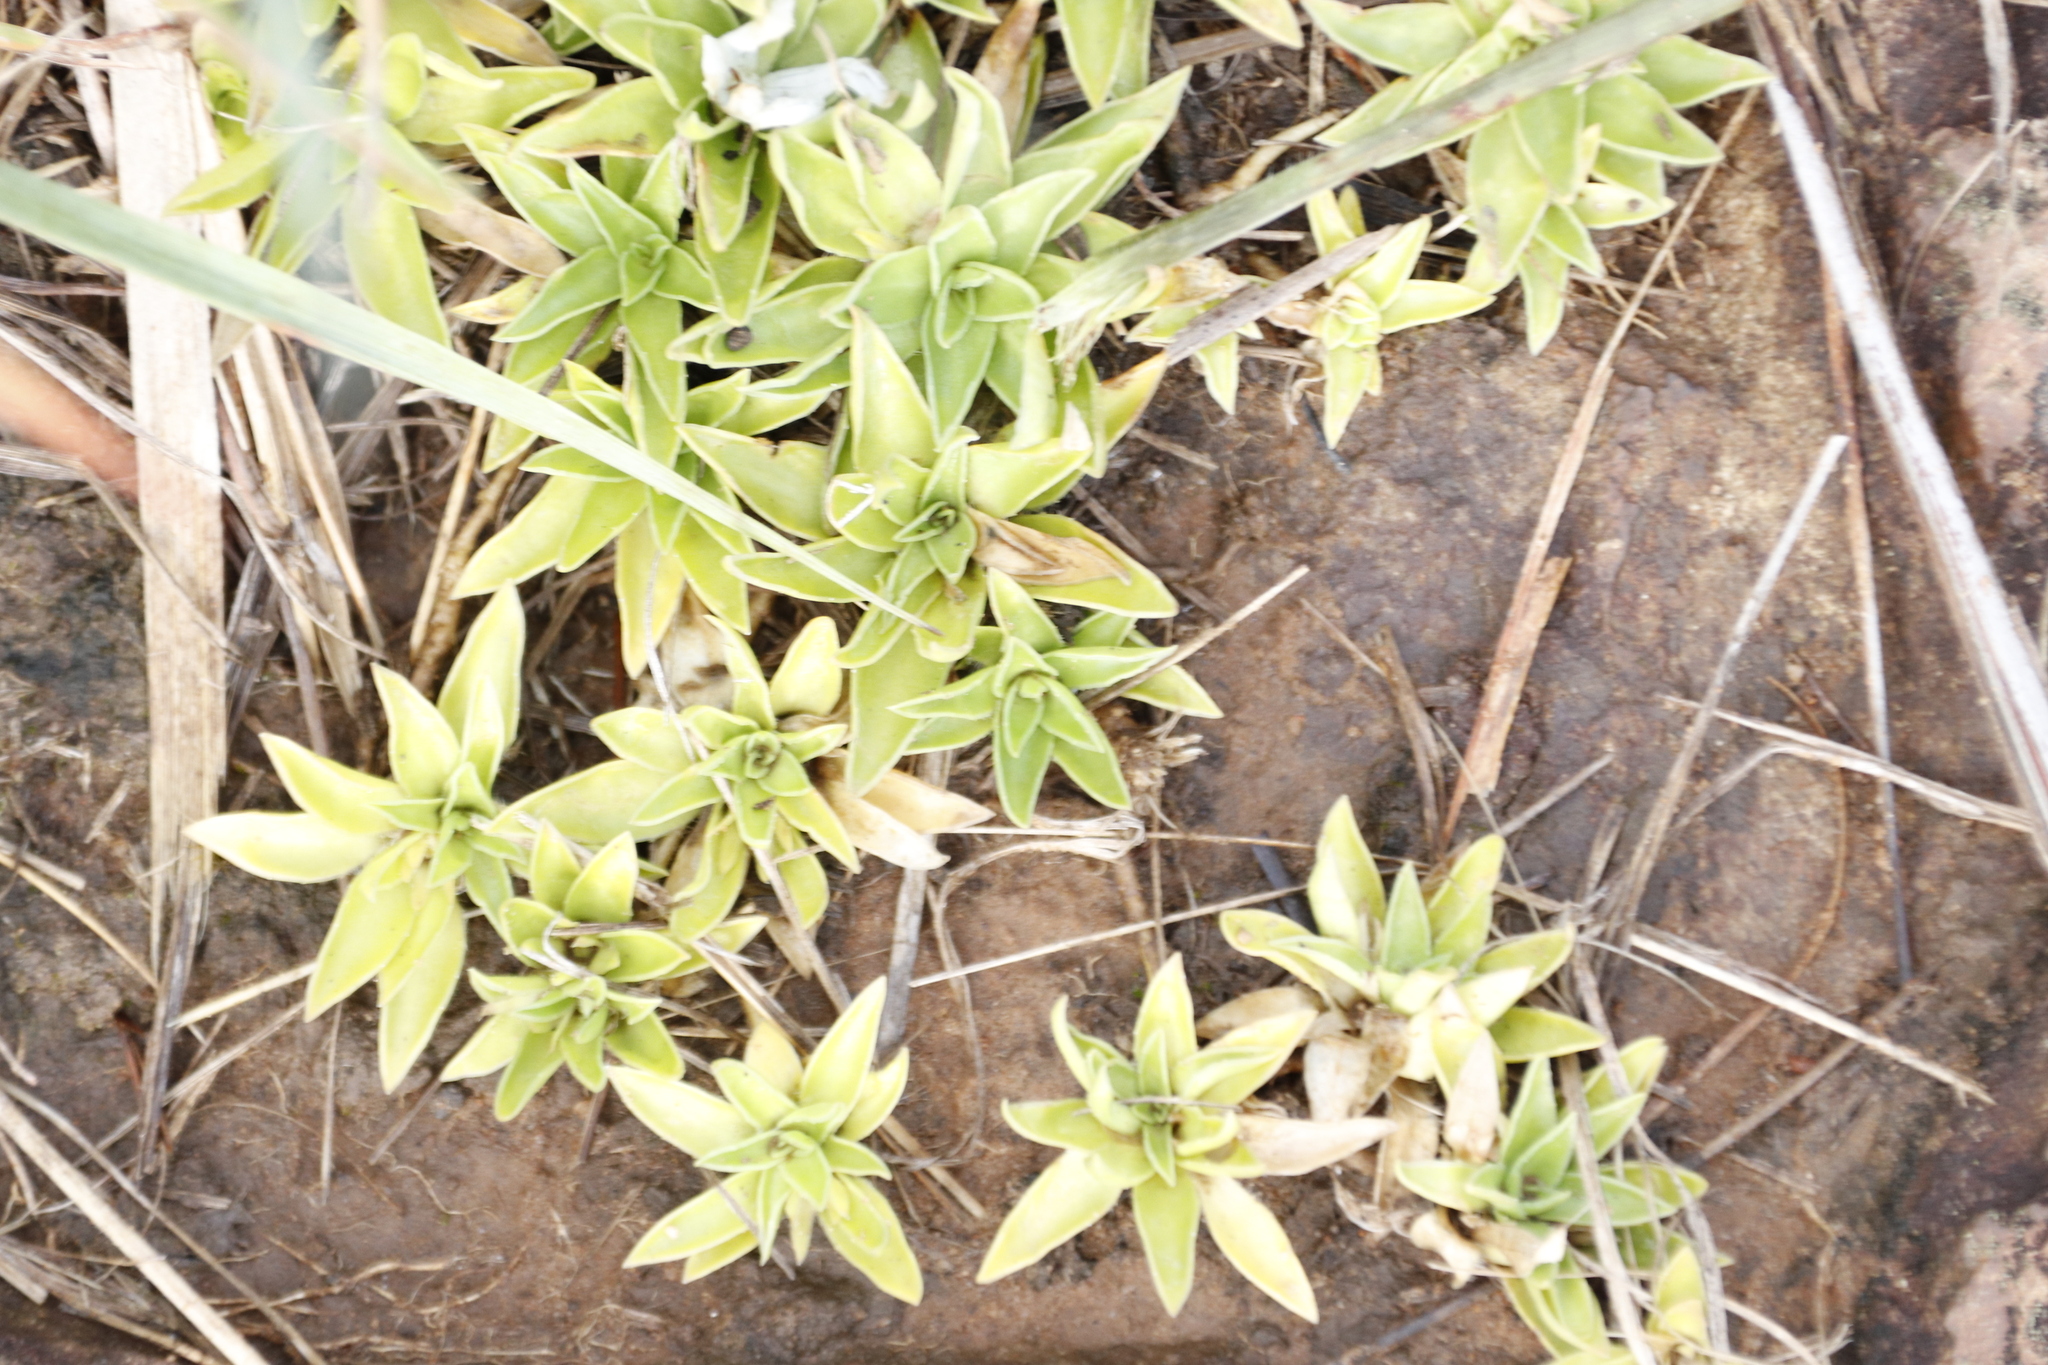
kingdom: Plantae
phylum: Tracheophyta
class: Magnoliopsida
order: Asterales
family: Campanulaceae
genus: Craterocapsa
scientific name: Craterocapsa tarsodes
